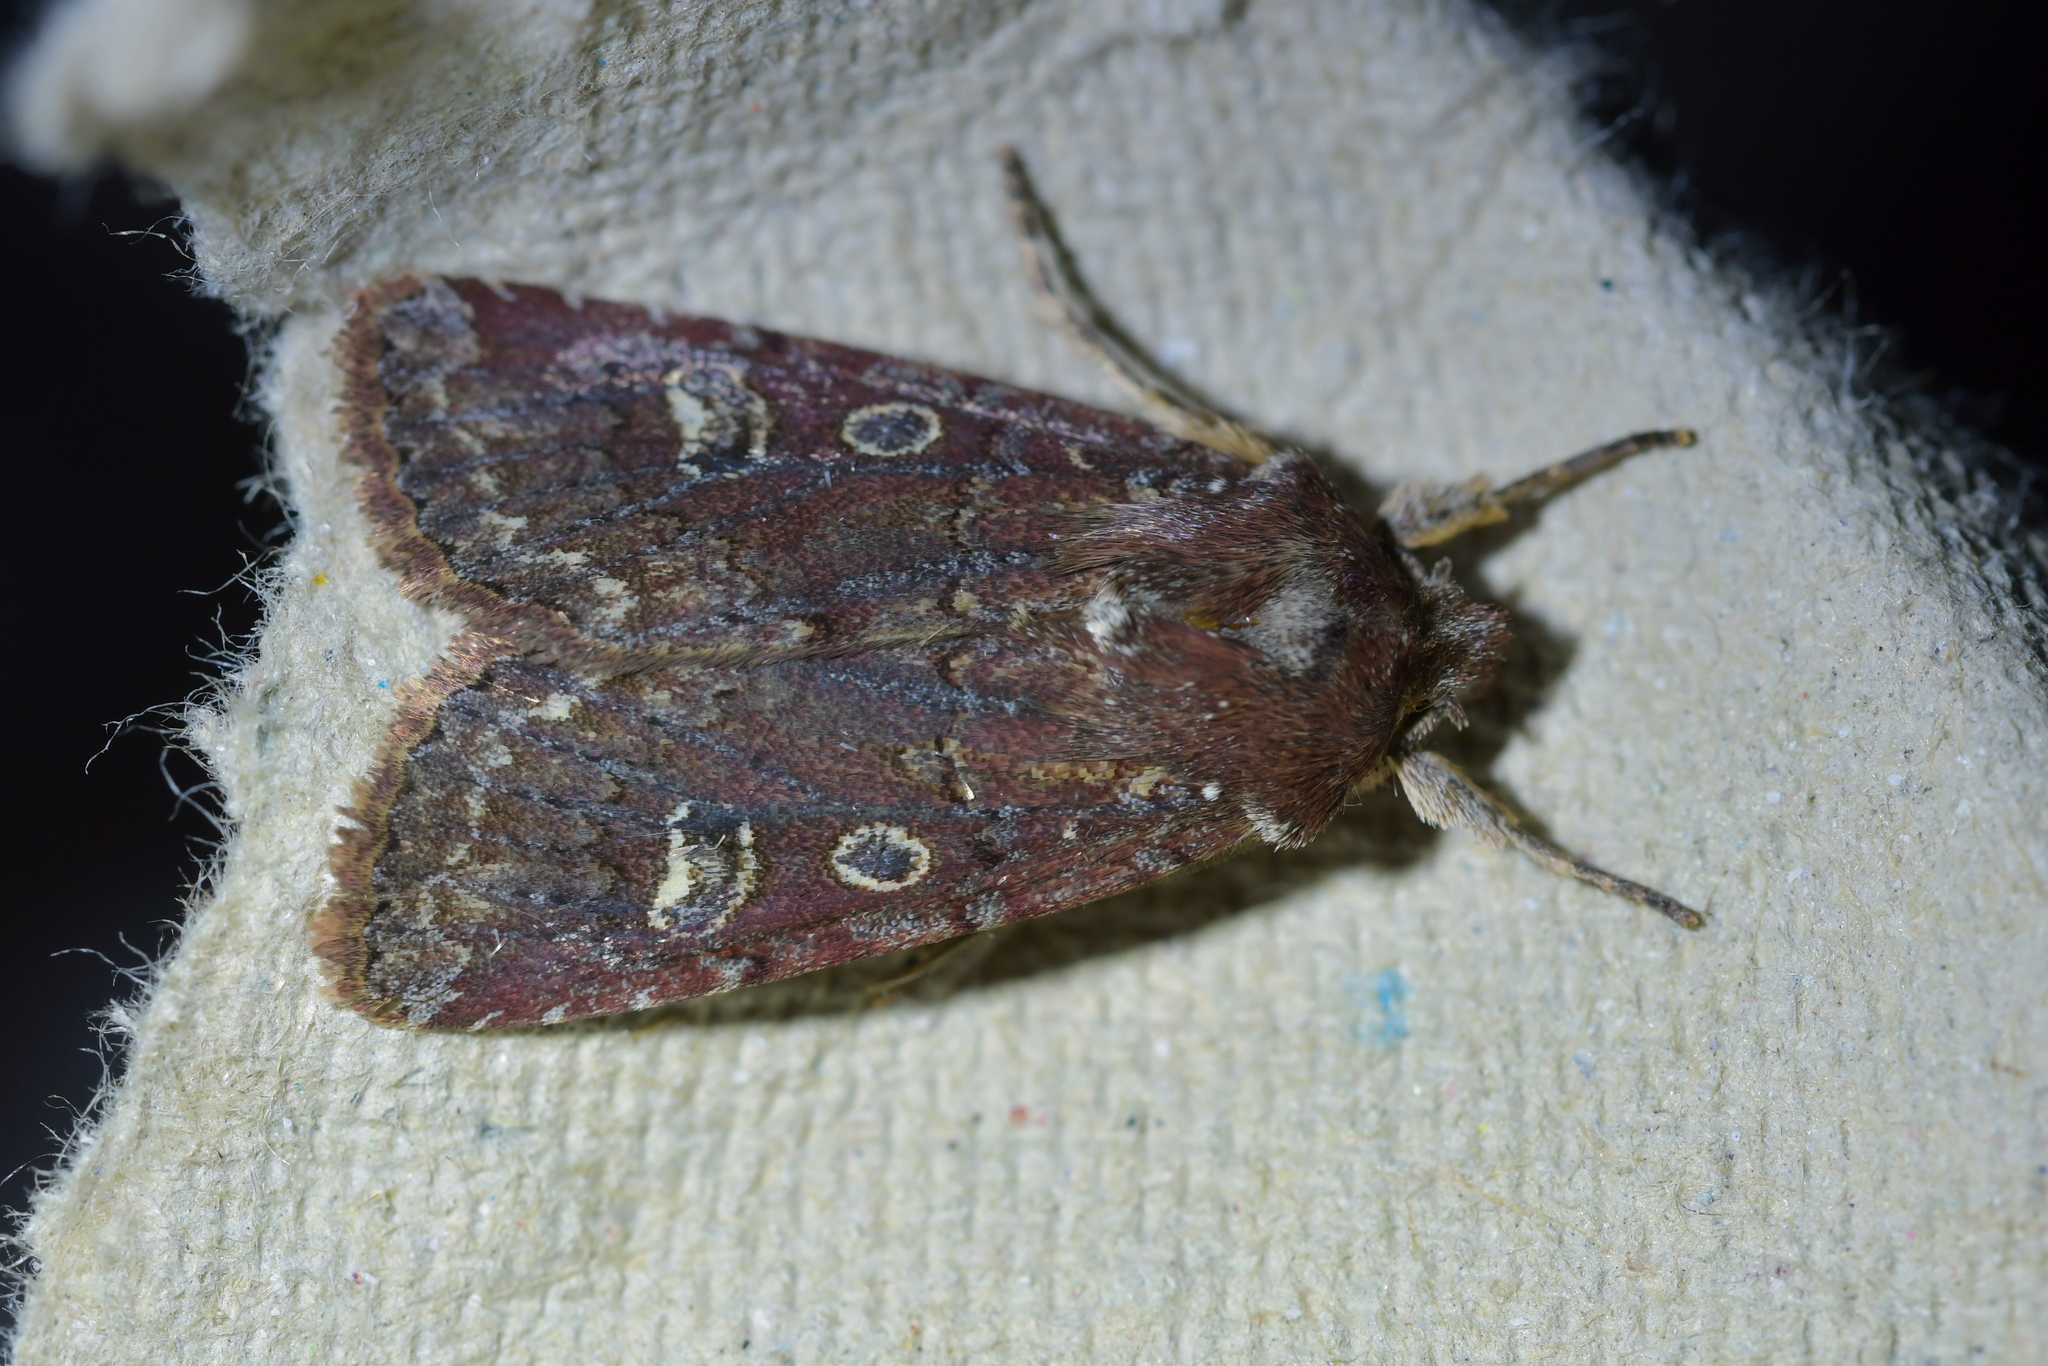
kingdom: Animalia
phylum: Arthropoda
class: Insecta
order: Lepidoptera
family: Noctuidae
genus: Ichneutica
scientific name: Ichneutica agorastis
